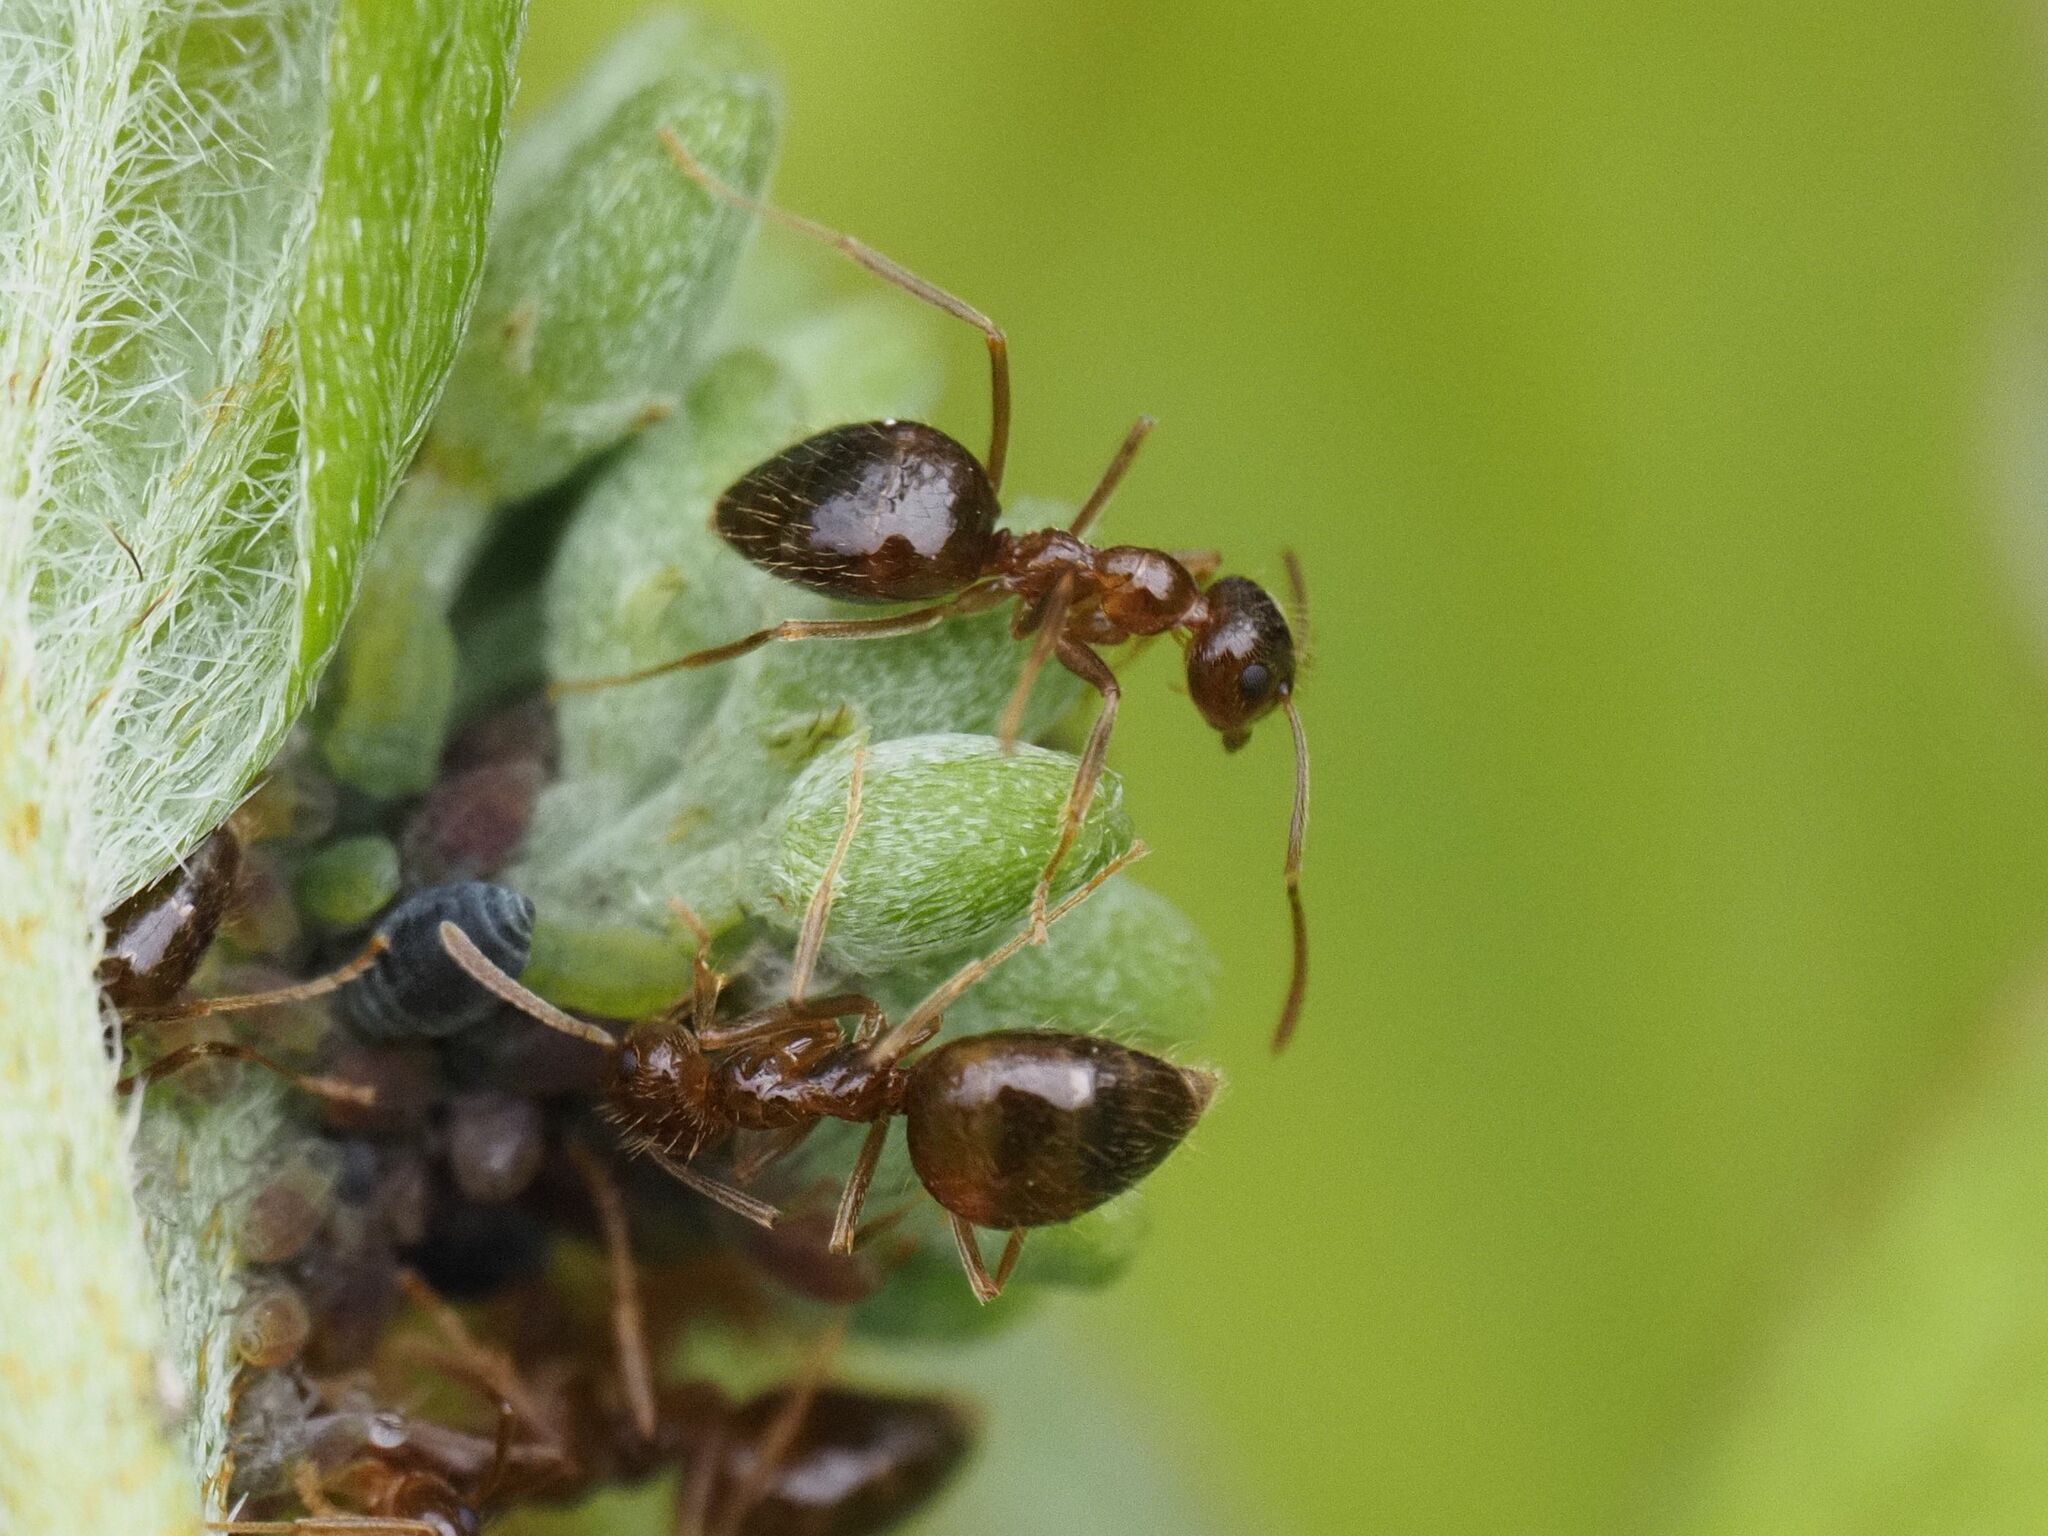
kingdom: Animalia
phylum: Arthropoda
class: Insecta
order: Hymenoptera
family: Formicidae
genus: Prenolepis
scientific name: Prenolepis nitens
